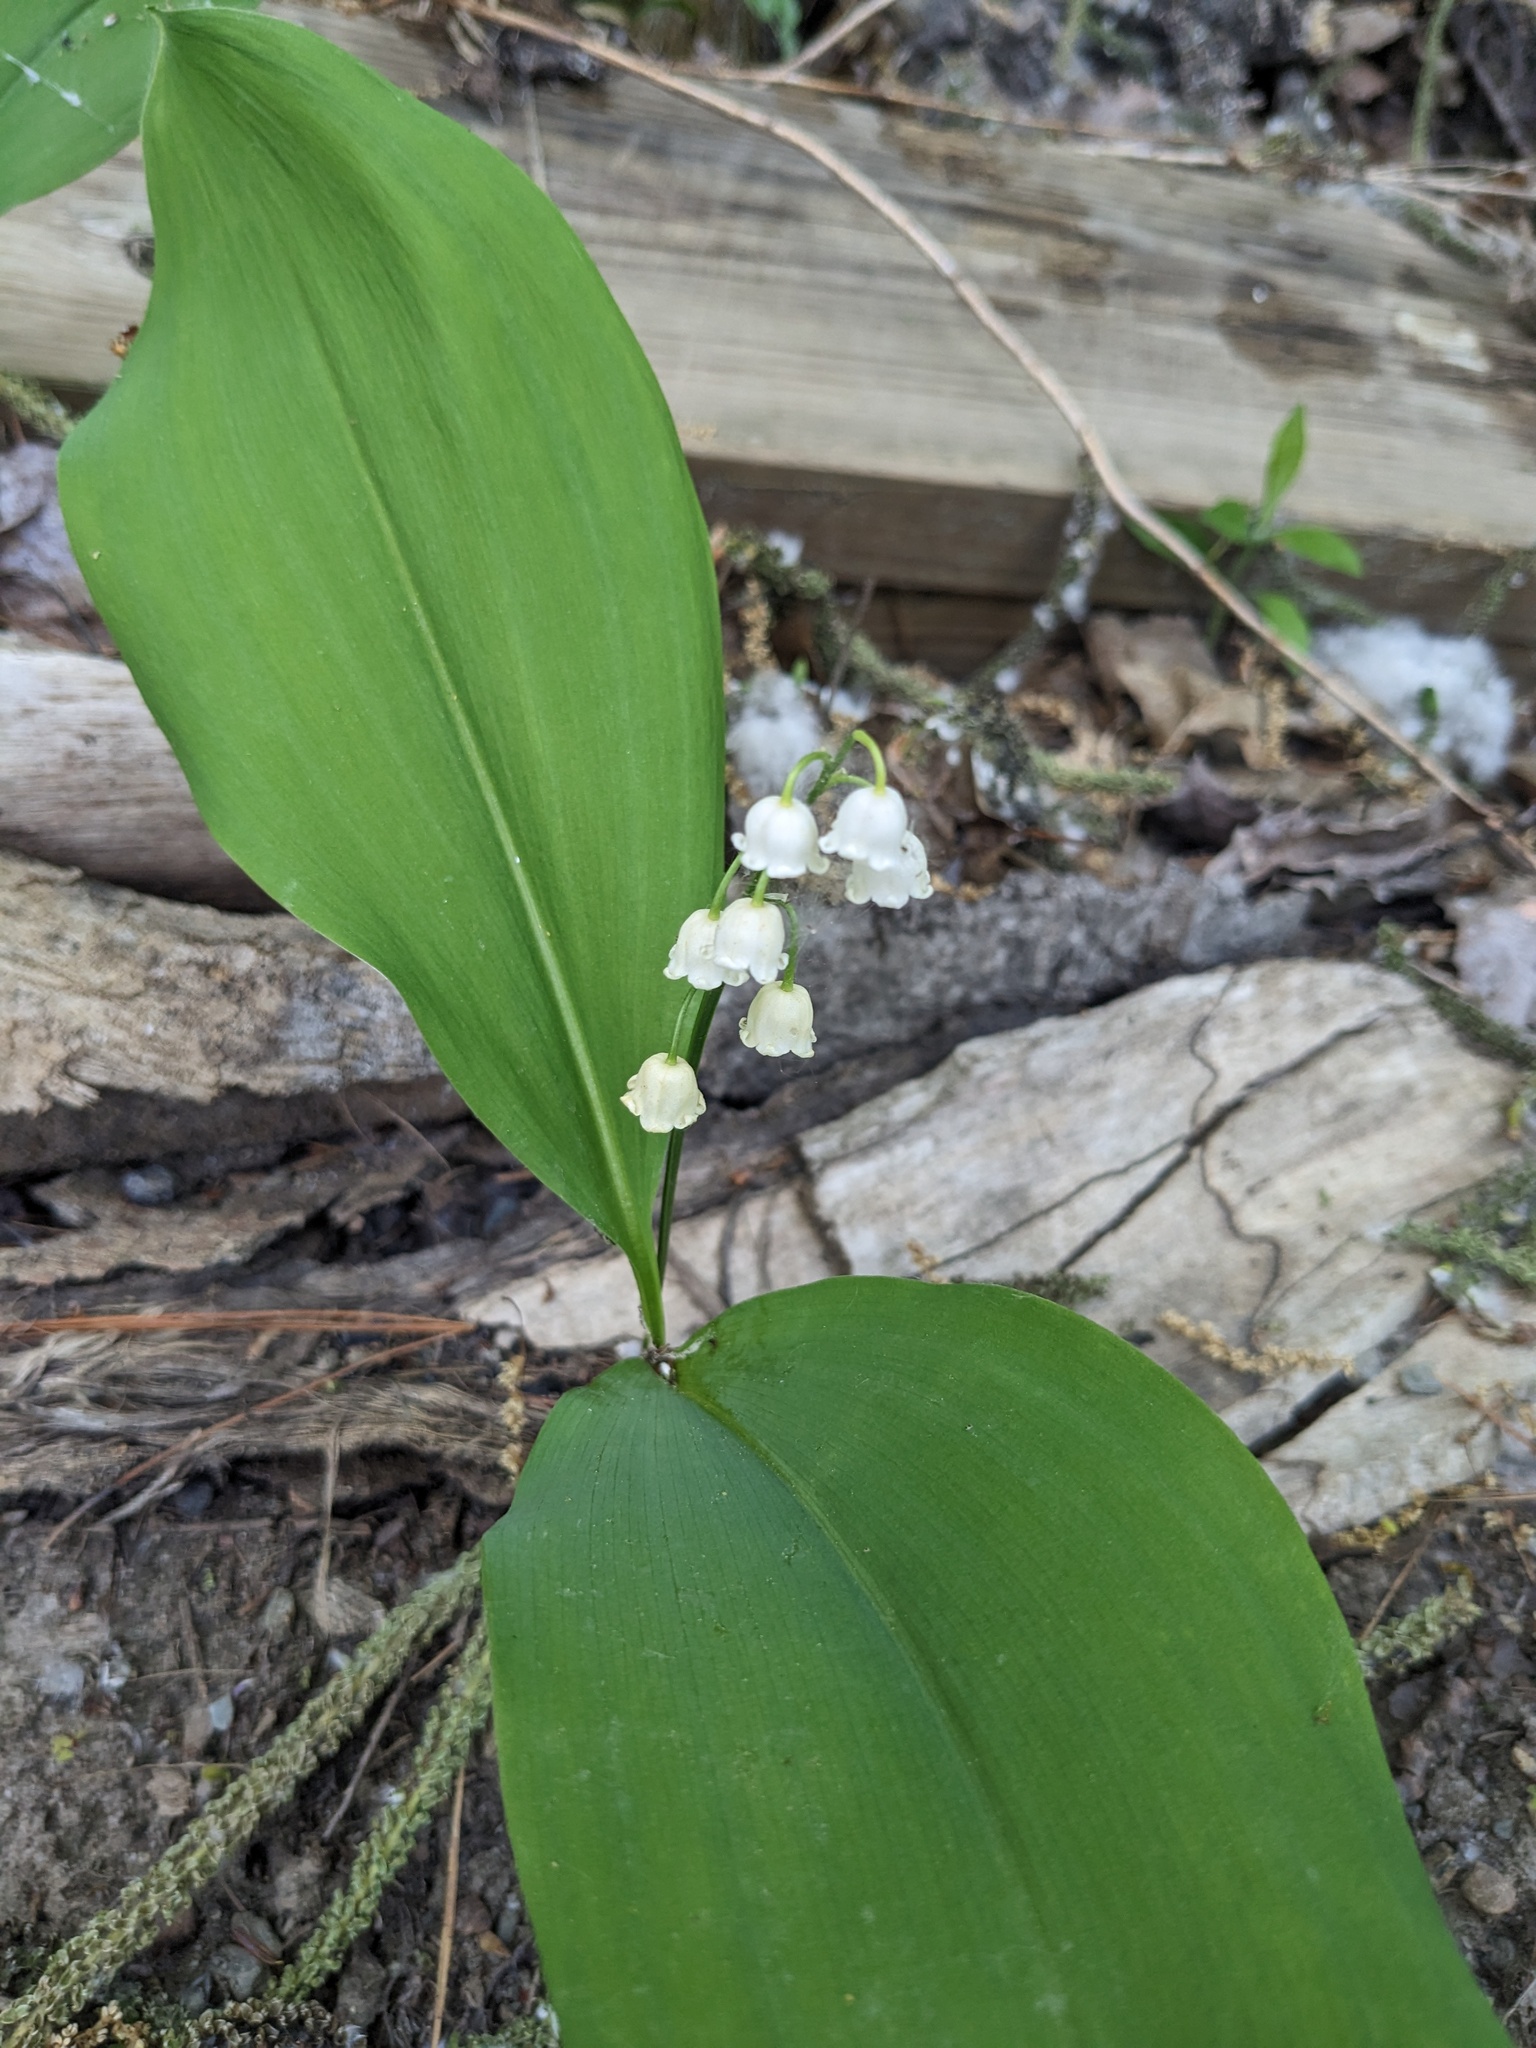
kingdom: Plantae
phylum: Tracheophyta
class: Liliopsida
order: Asparagales
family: Asparagaceae
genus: Convallaria
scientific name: Convallaria majalis
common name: Lily-of-the-valley
